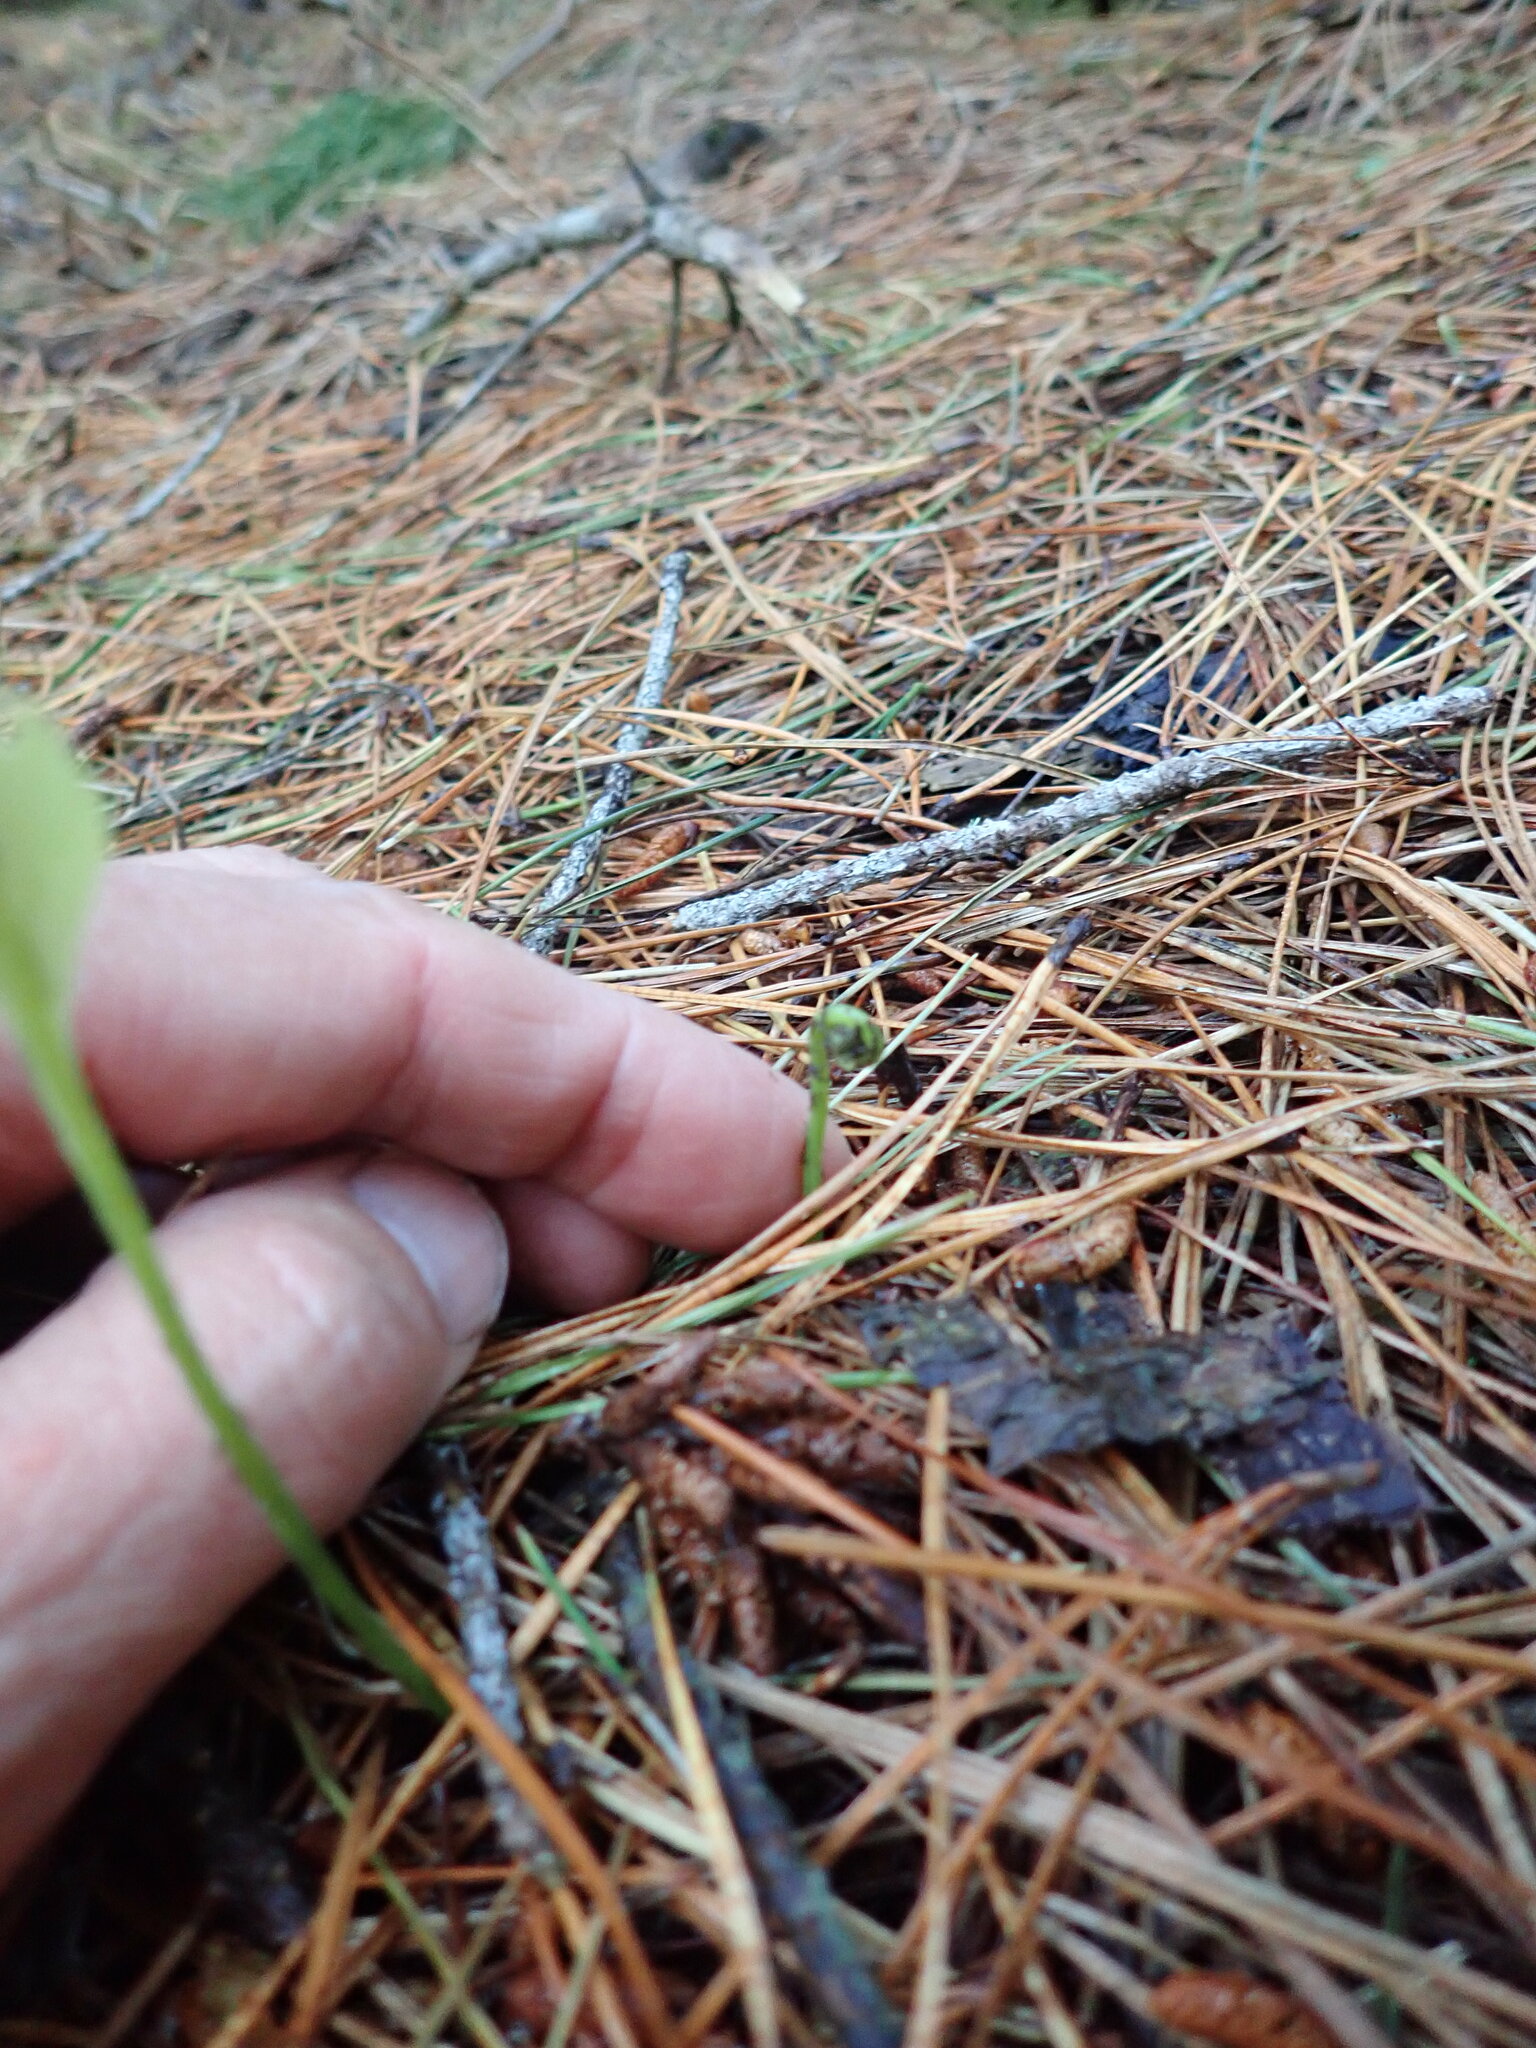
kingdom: Plantae
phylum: Tracheophyta
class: Polypodiopsida
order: Polypodiales
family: Polypodiaceae
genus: Lecanopteris
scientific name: Lecanopteris pustulata
